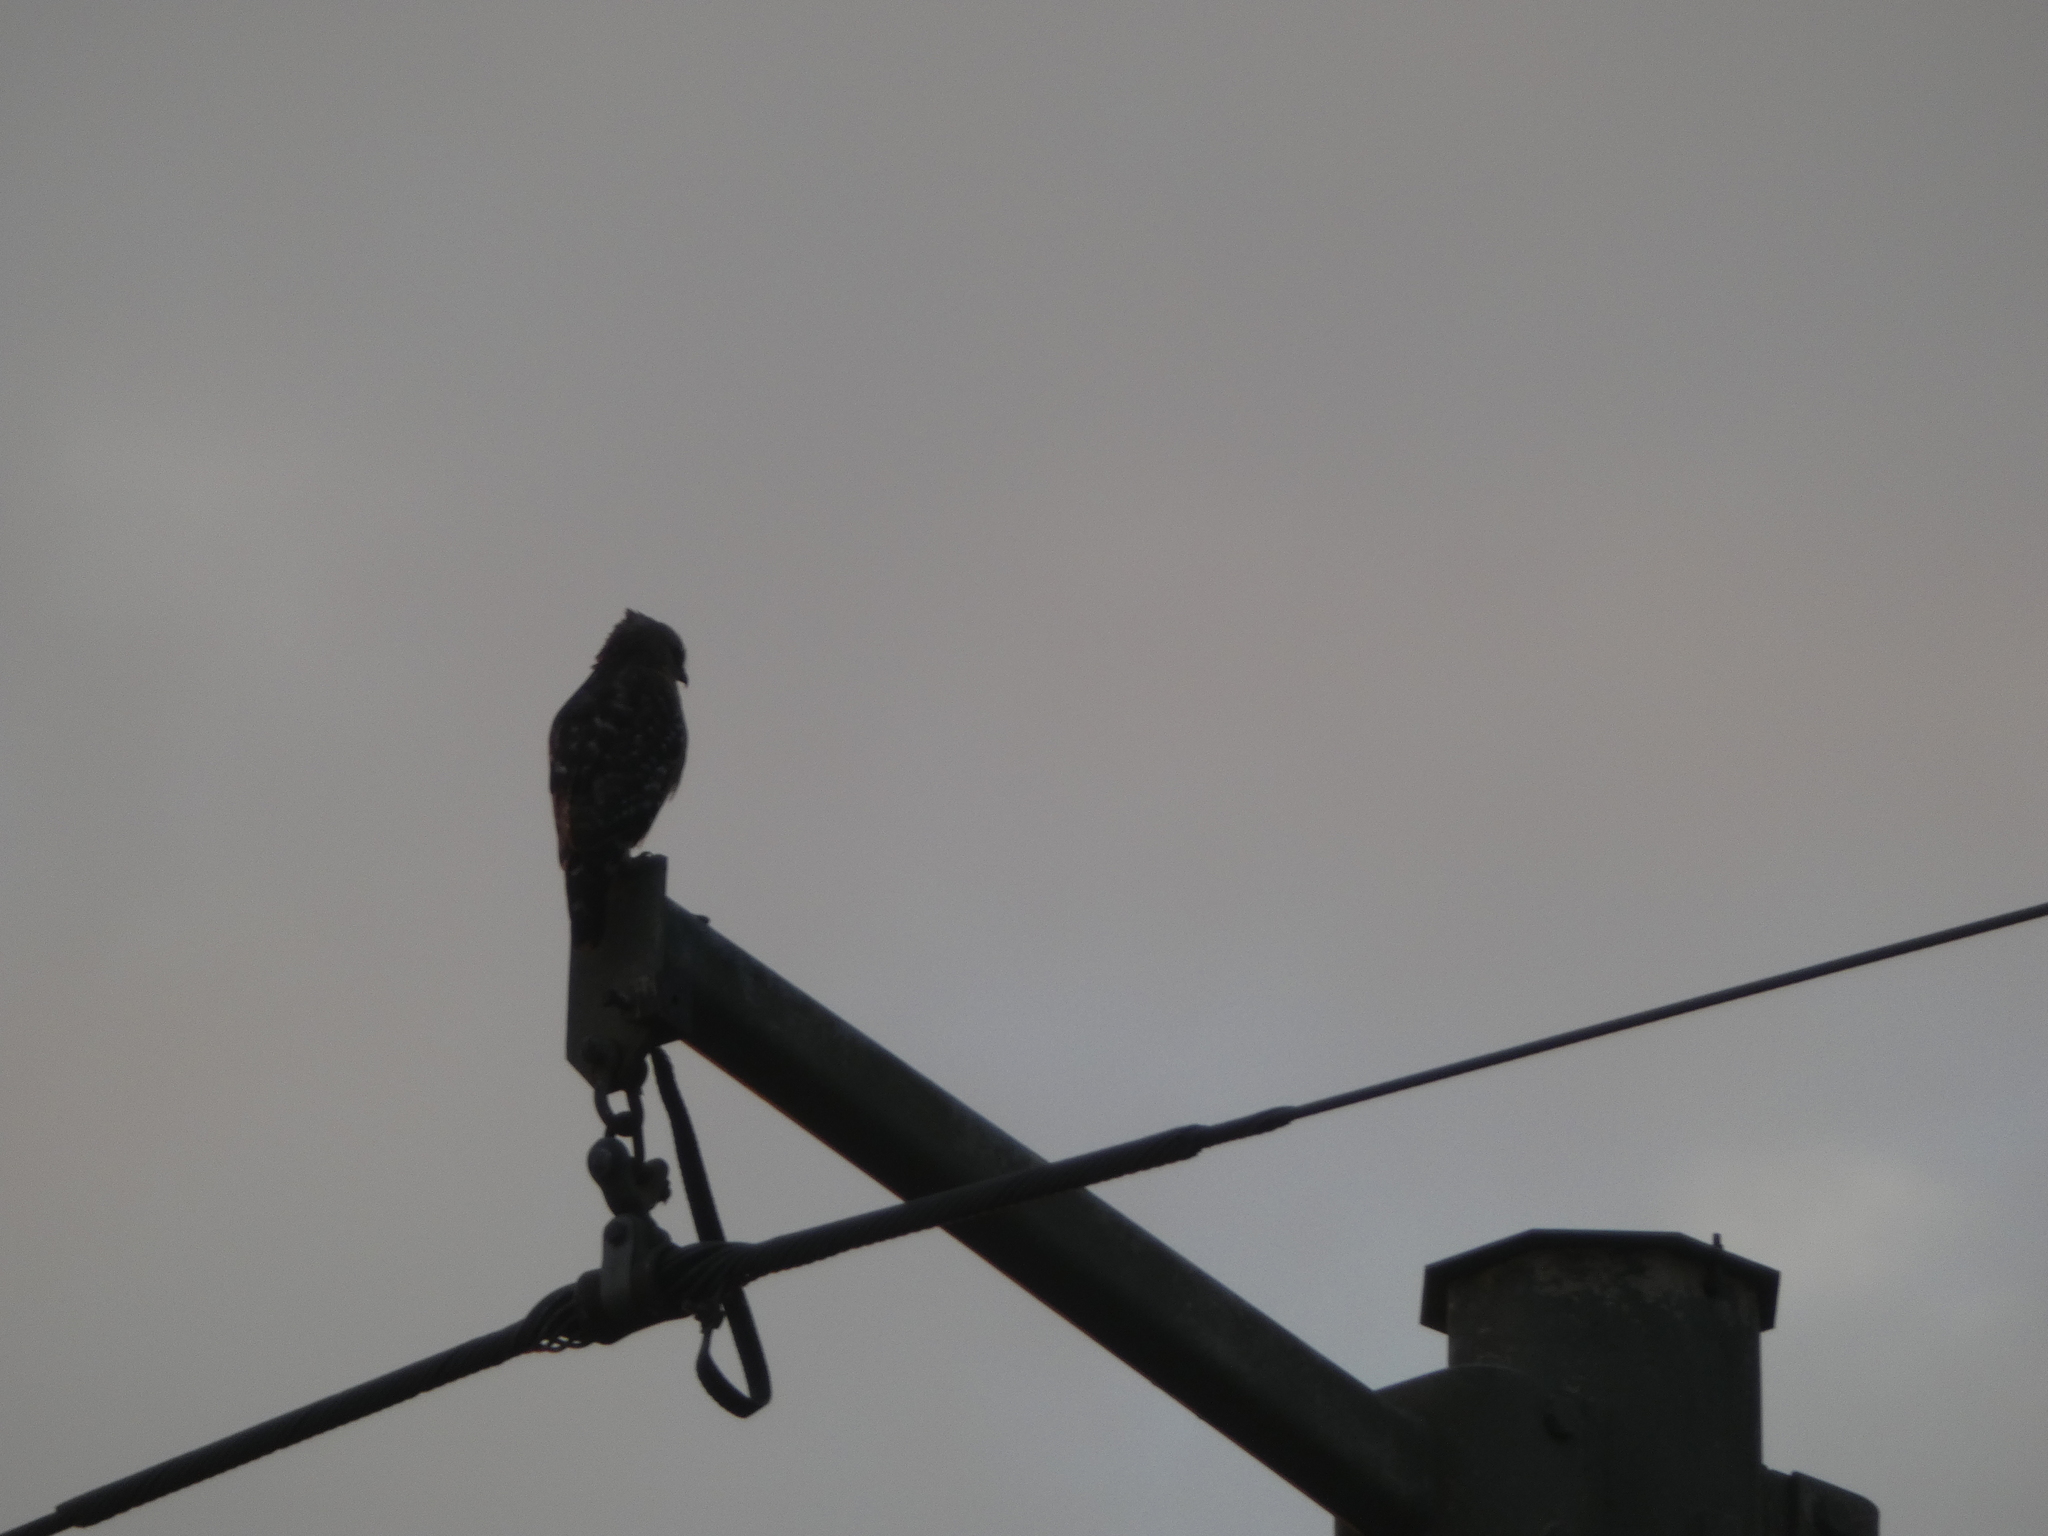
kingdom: Animalia
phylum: Chordata
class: Aves
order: Accipitriformes
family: Accipitridae
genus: Buteo
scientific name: Buteo lineatus
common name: Red-shouldered hawk
